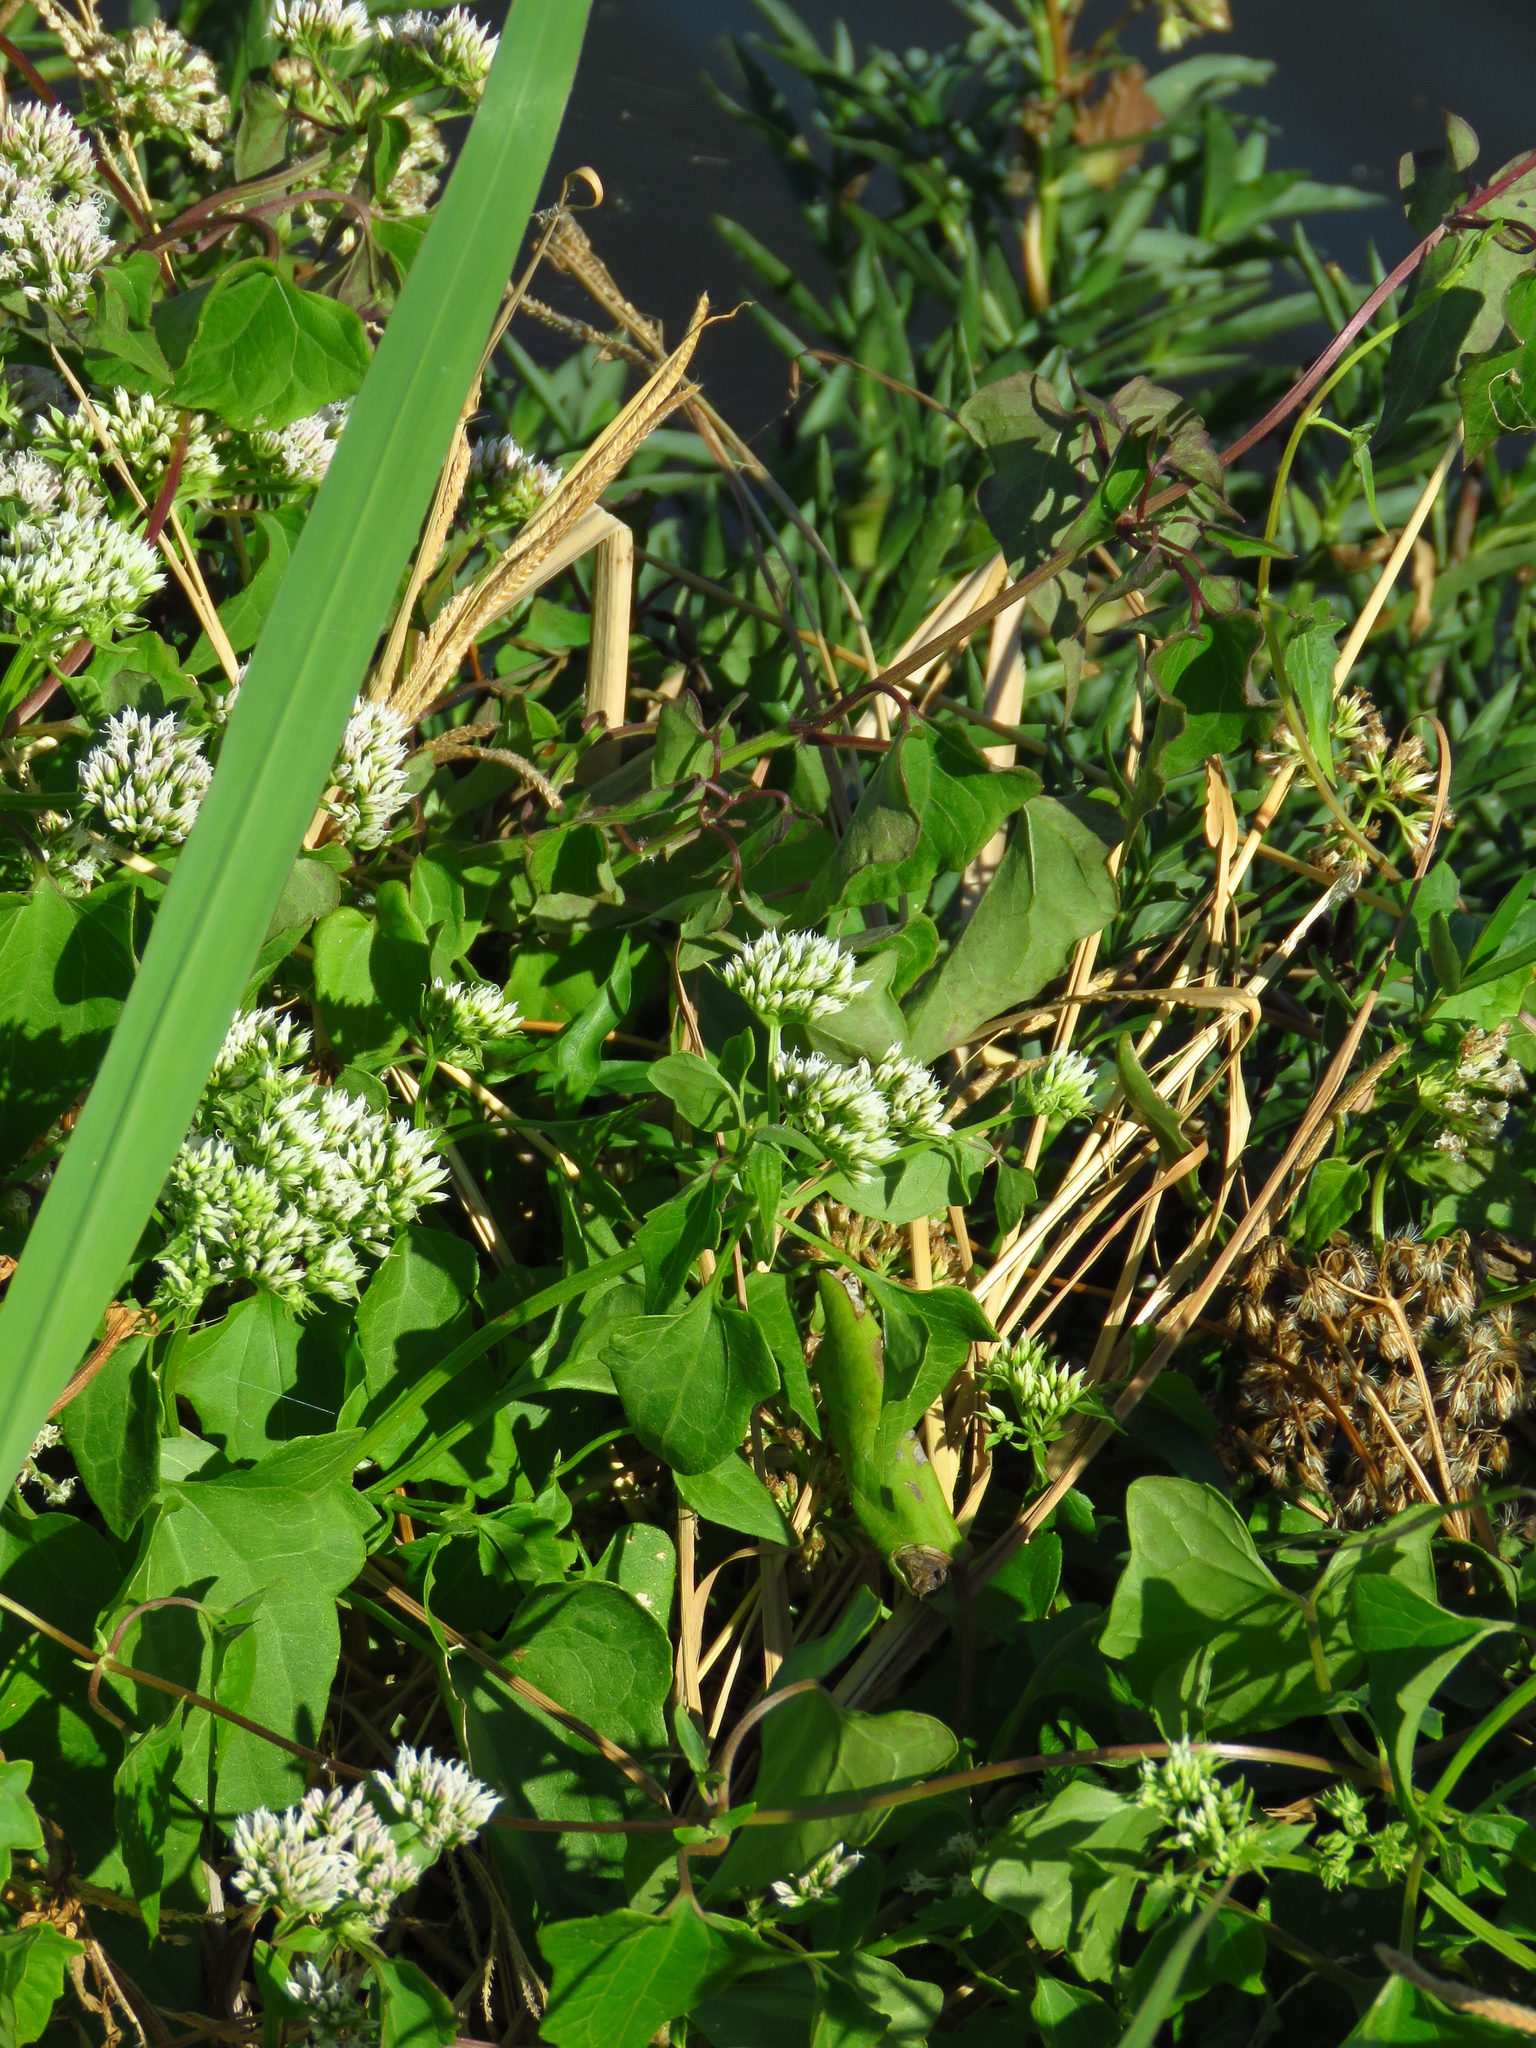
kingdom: Plantae
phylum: Tracheophyta
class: Magnoliopsida
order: Asterales
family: Asteraceae
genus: Mikania
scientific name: Mikania scandens
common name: Climbing hempvine
